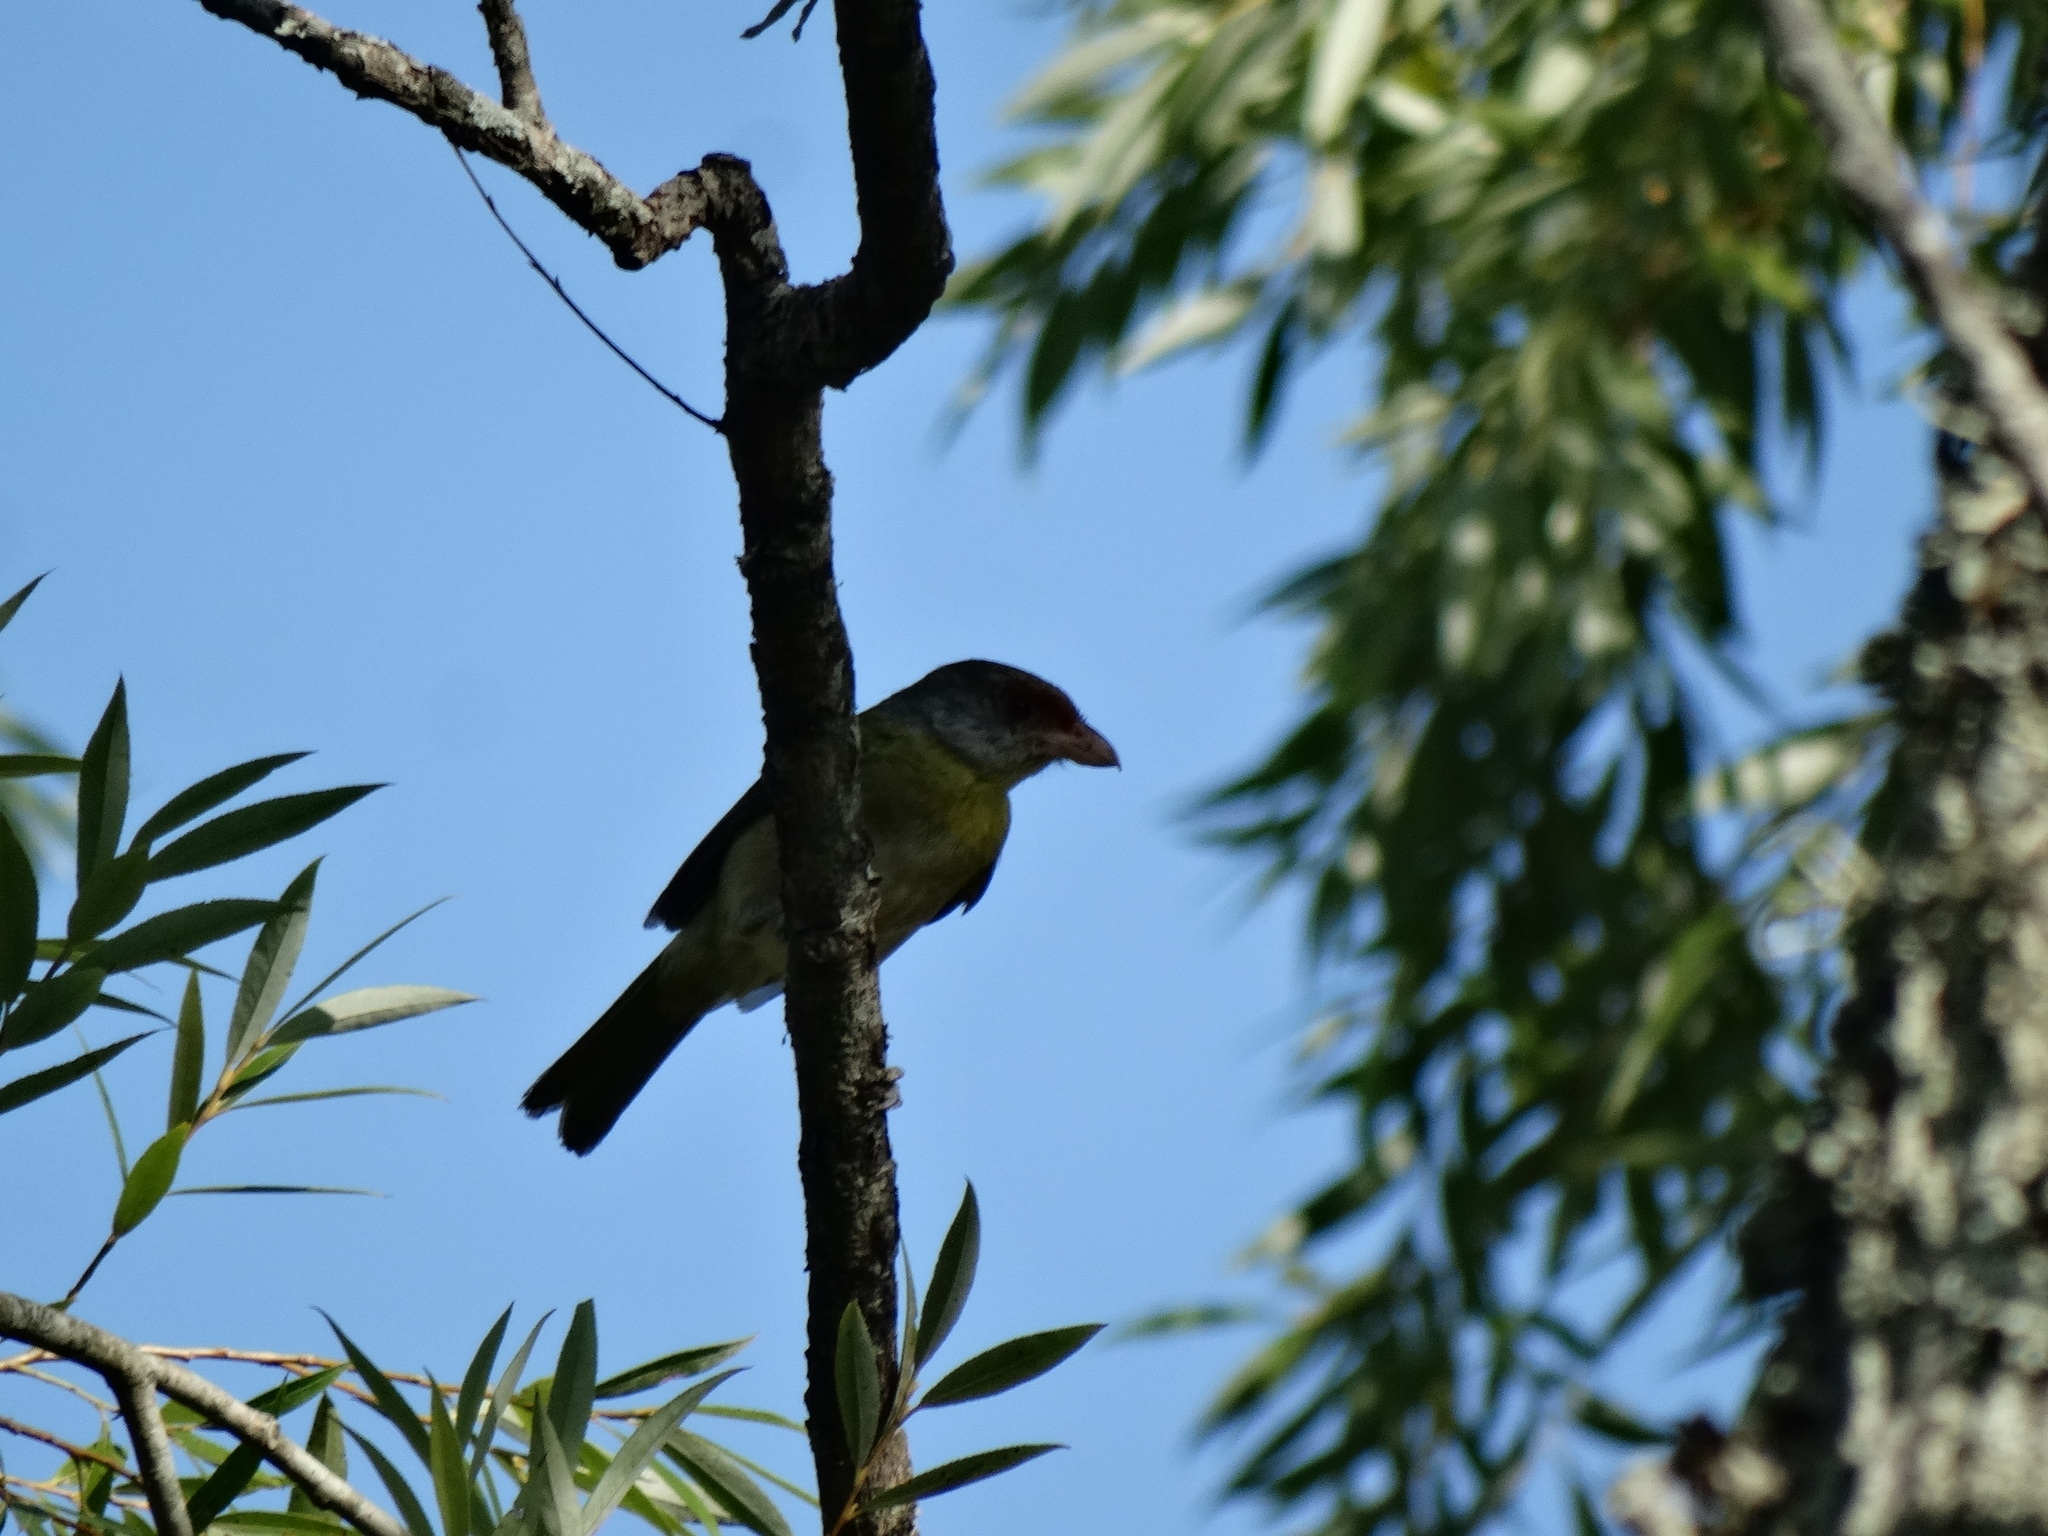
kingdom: Animalia
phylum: Chordata
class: Aves
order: Passeriformes
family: Vireonidae
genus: Cyclarhis
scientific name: Cyclarhis gujanensis
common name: Rufous-browed peppershrike
